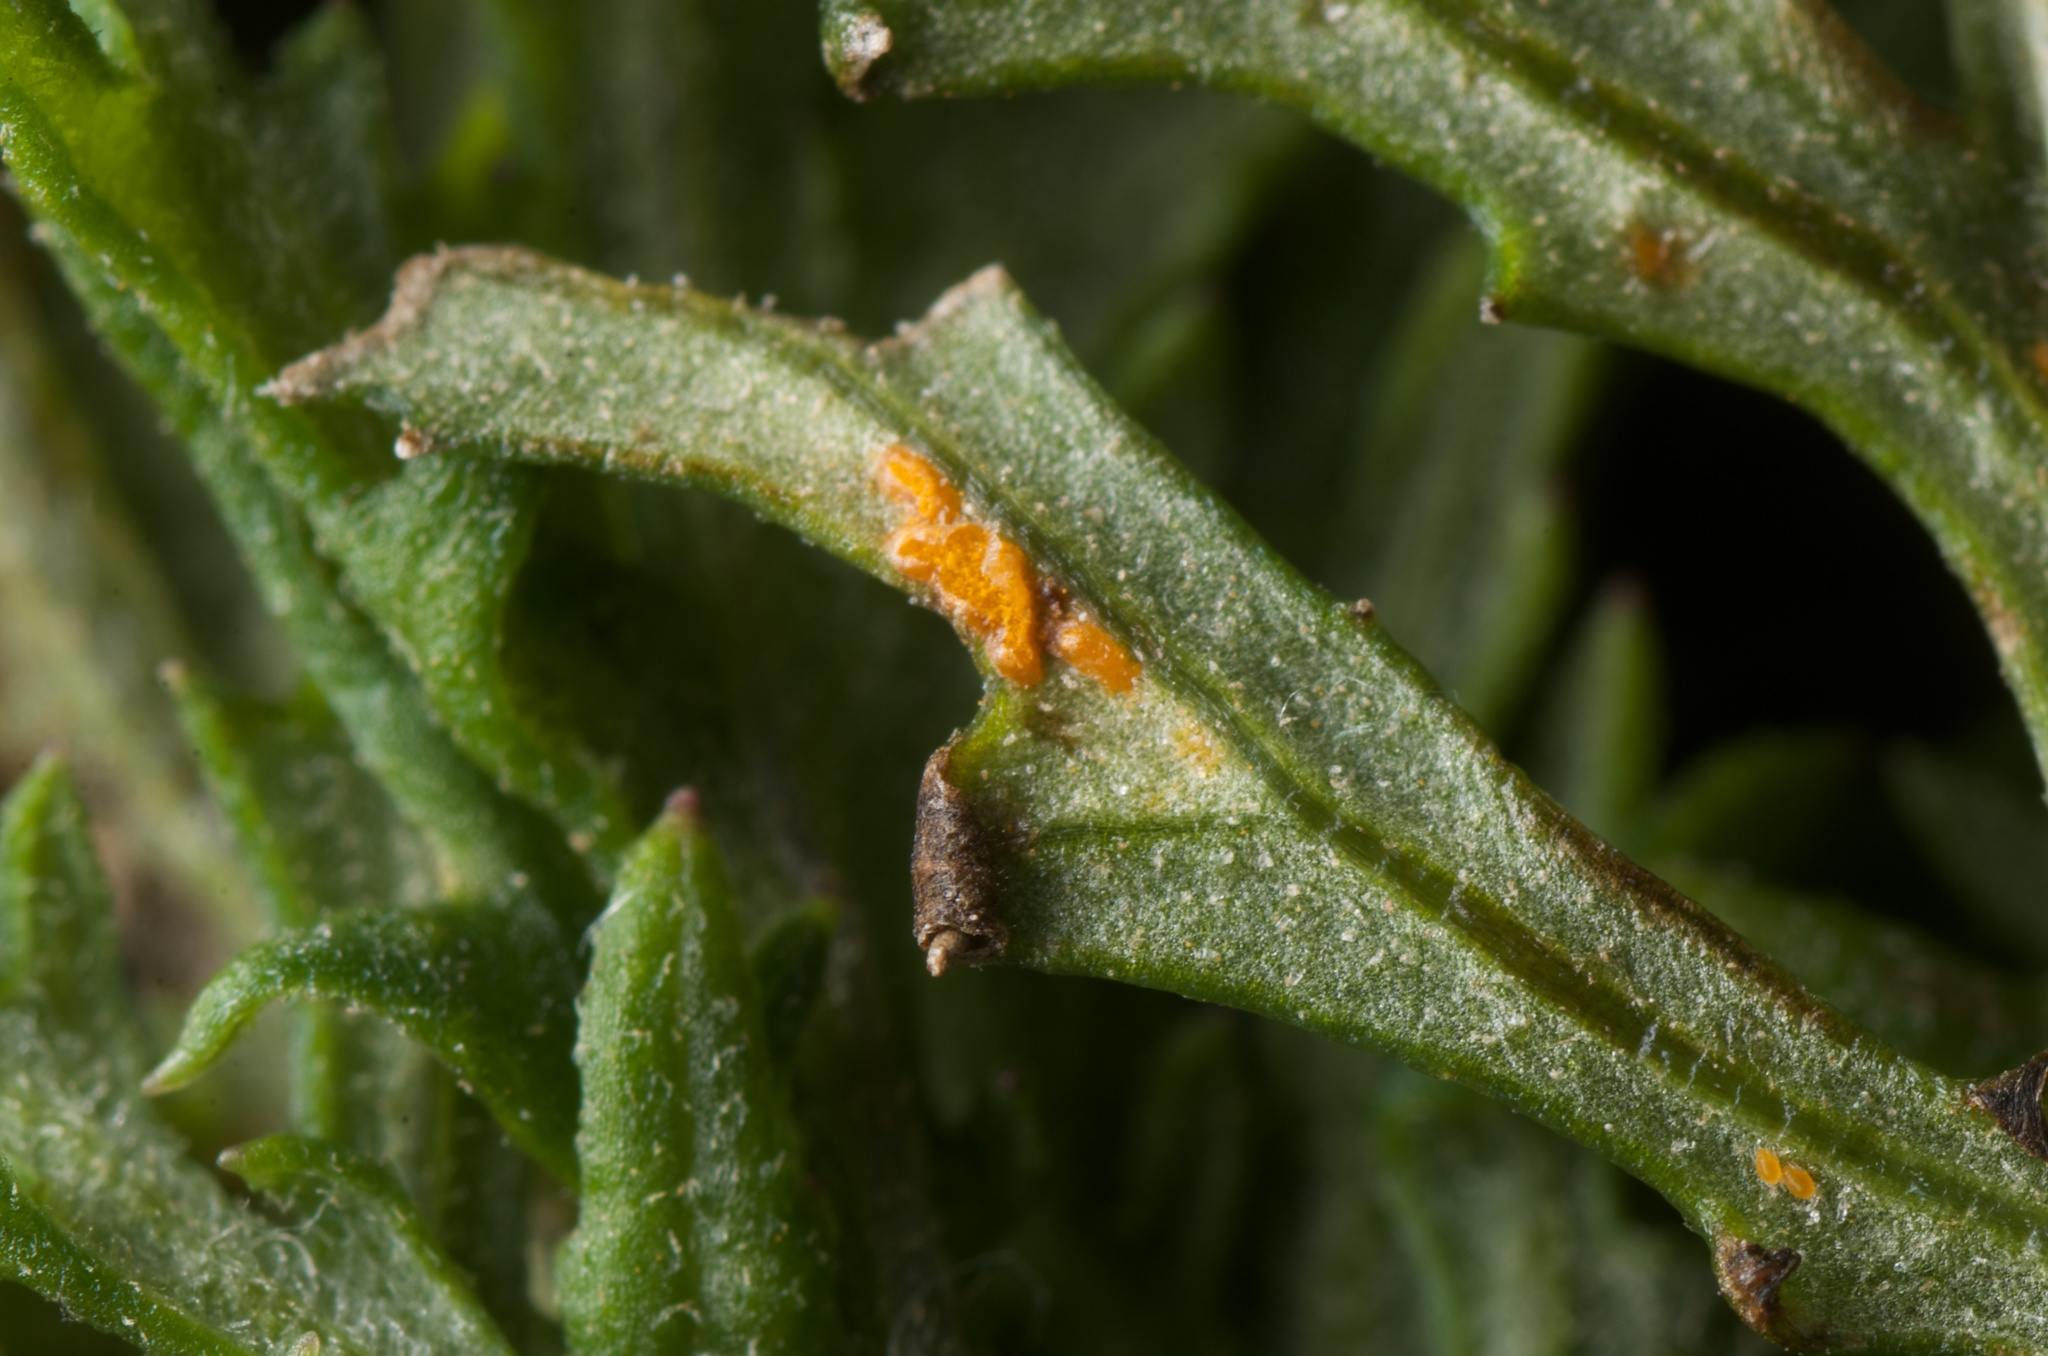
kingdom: Fungi
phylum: Basidiomycota
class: Pucciniomycetes
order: Pucciniales
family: Coleosporiaceae
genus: Coleosporium
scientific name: Coleosporium tussilaginis
